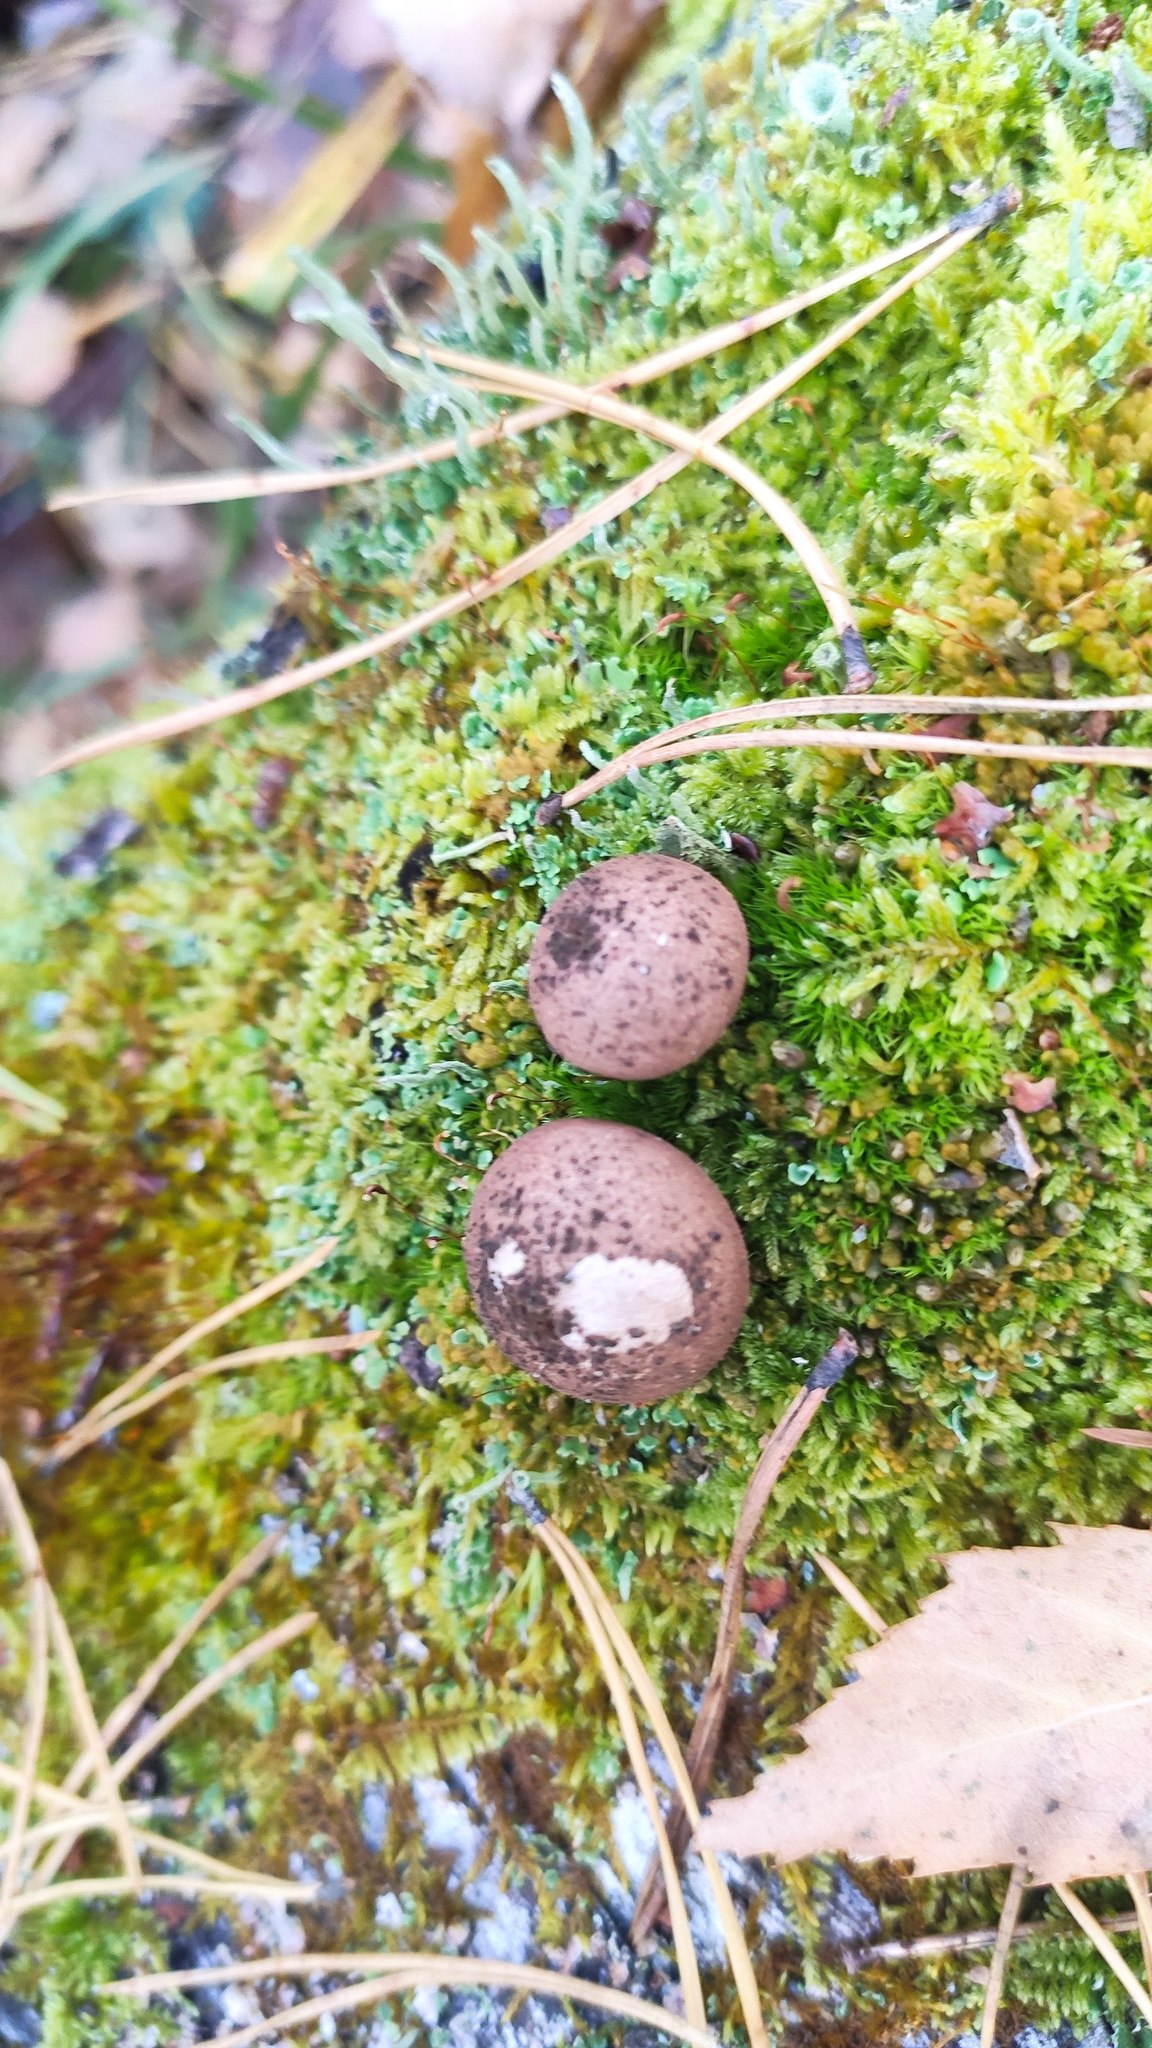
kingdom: Fungi
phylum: Basidiomycota
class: Agaricomycetes
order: Agaricales
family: Lycoperdaceae
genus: Apioperdon
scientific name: Apioperdon pyriforme
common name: Pear-shaped puffball
